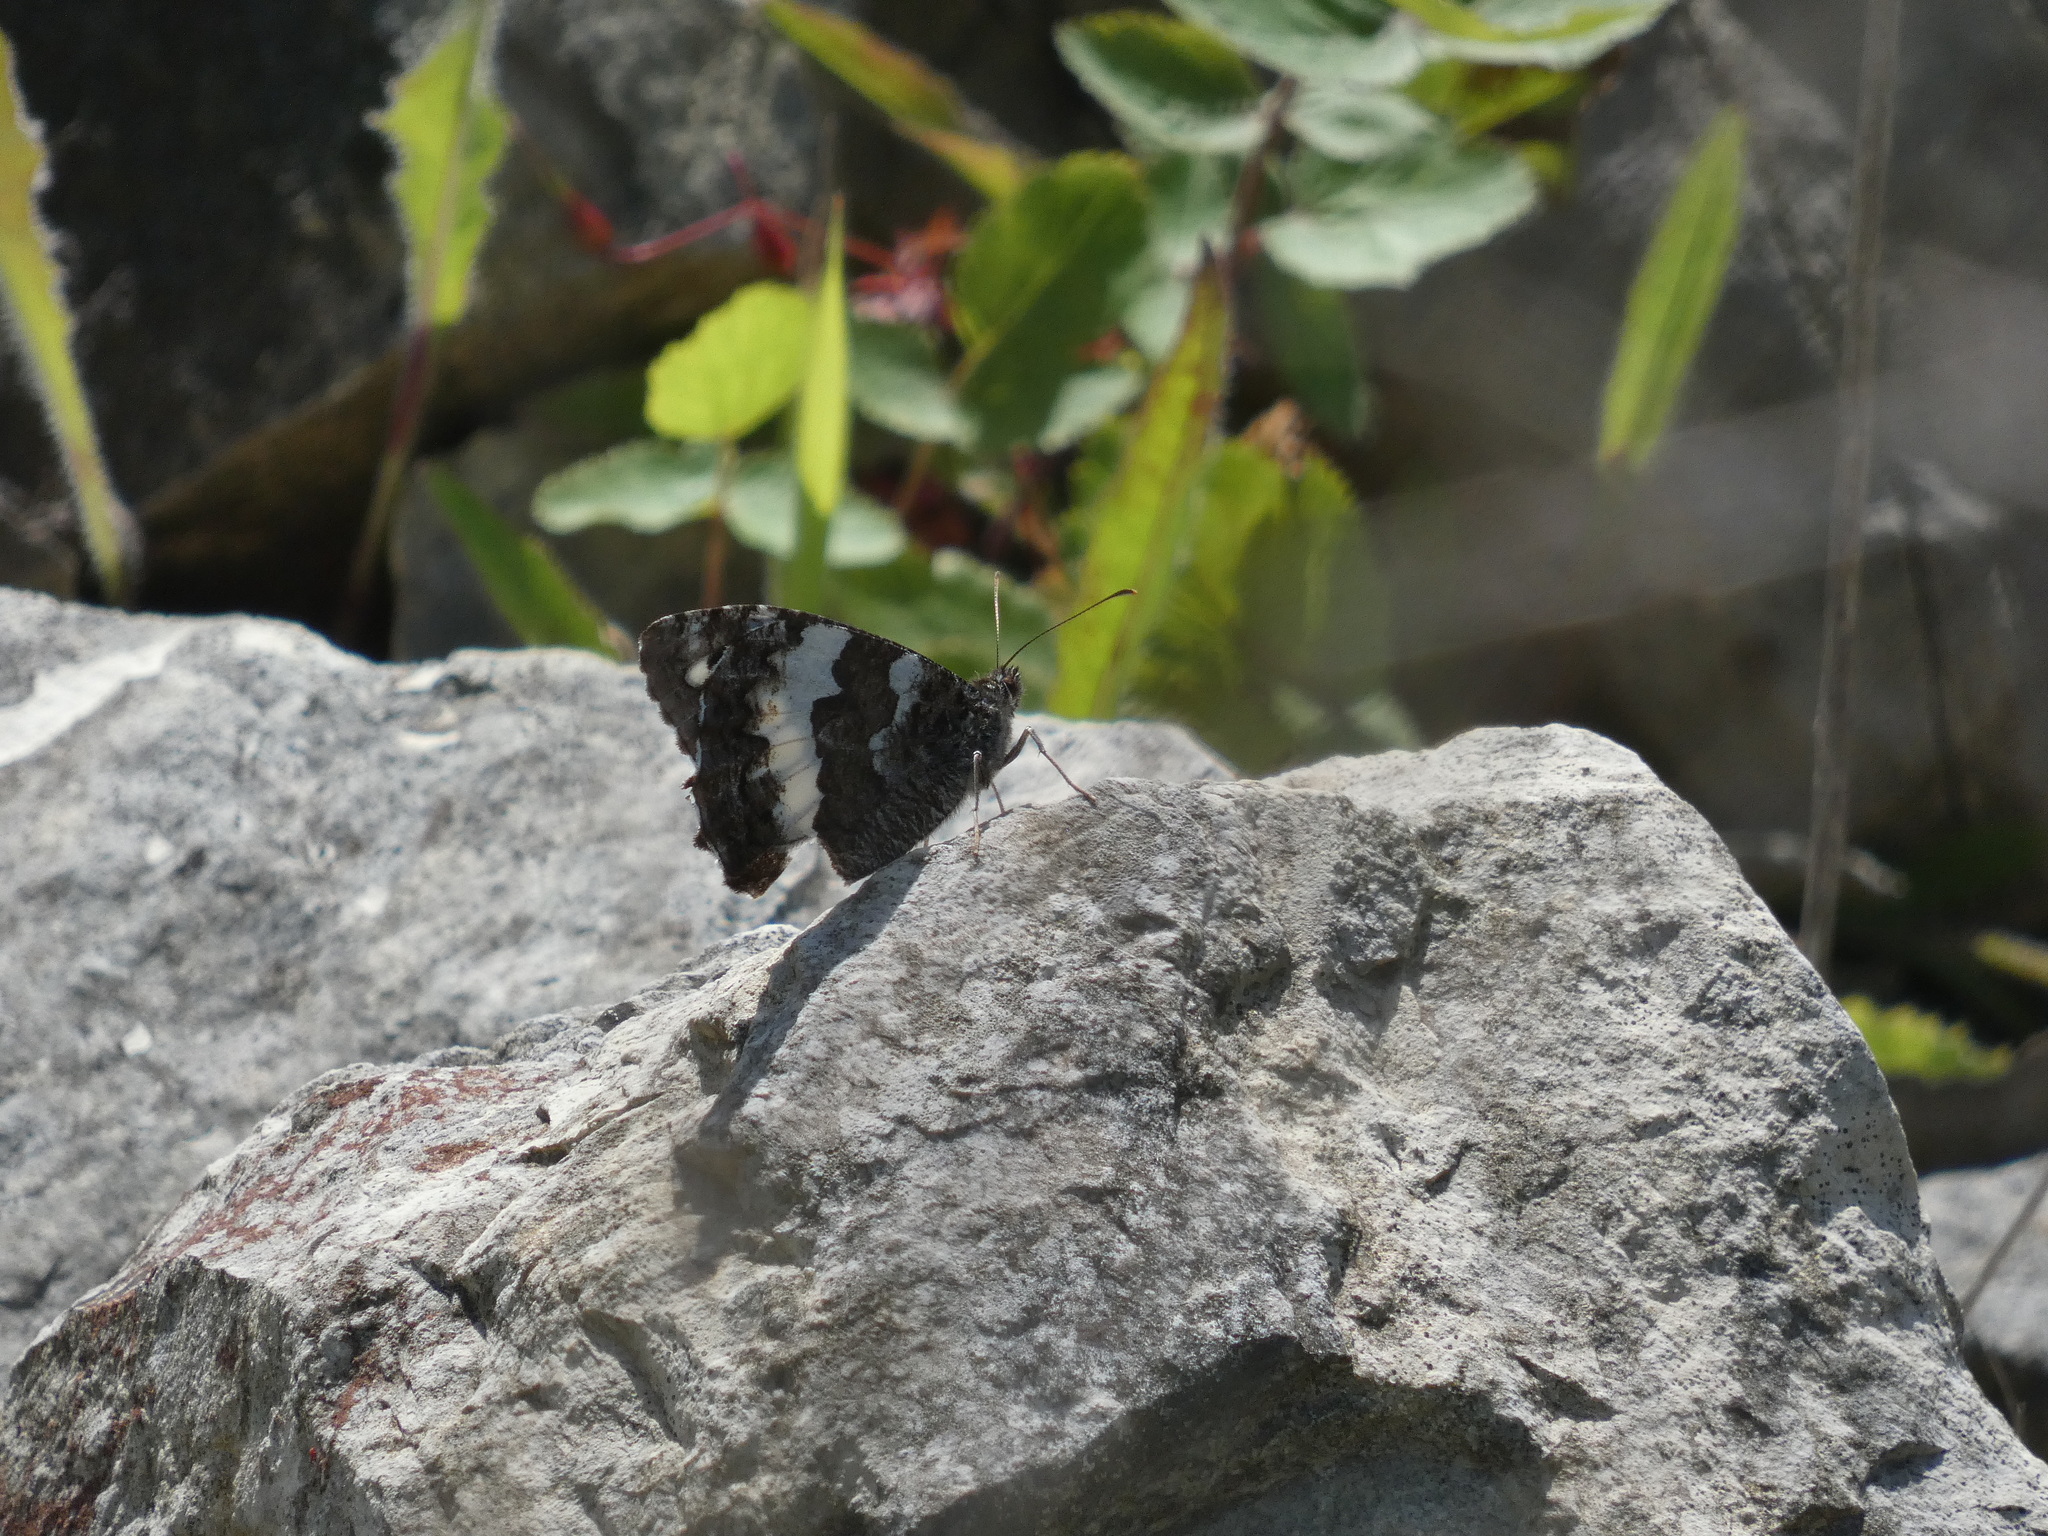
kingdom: Animalia
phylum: Arthropoda
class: Insecta
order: Lepidoptera
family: Lycaenidae
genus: Loweia
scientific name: Loweia tityrus
